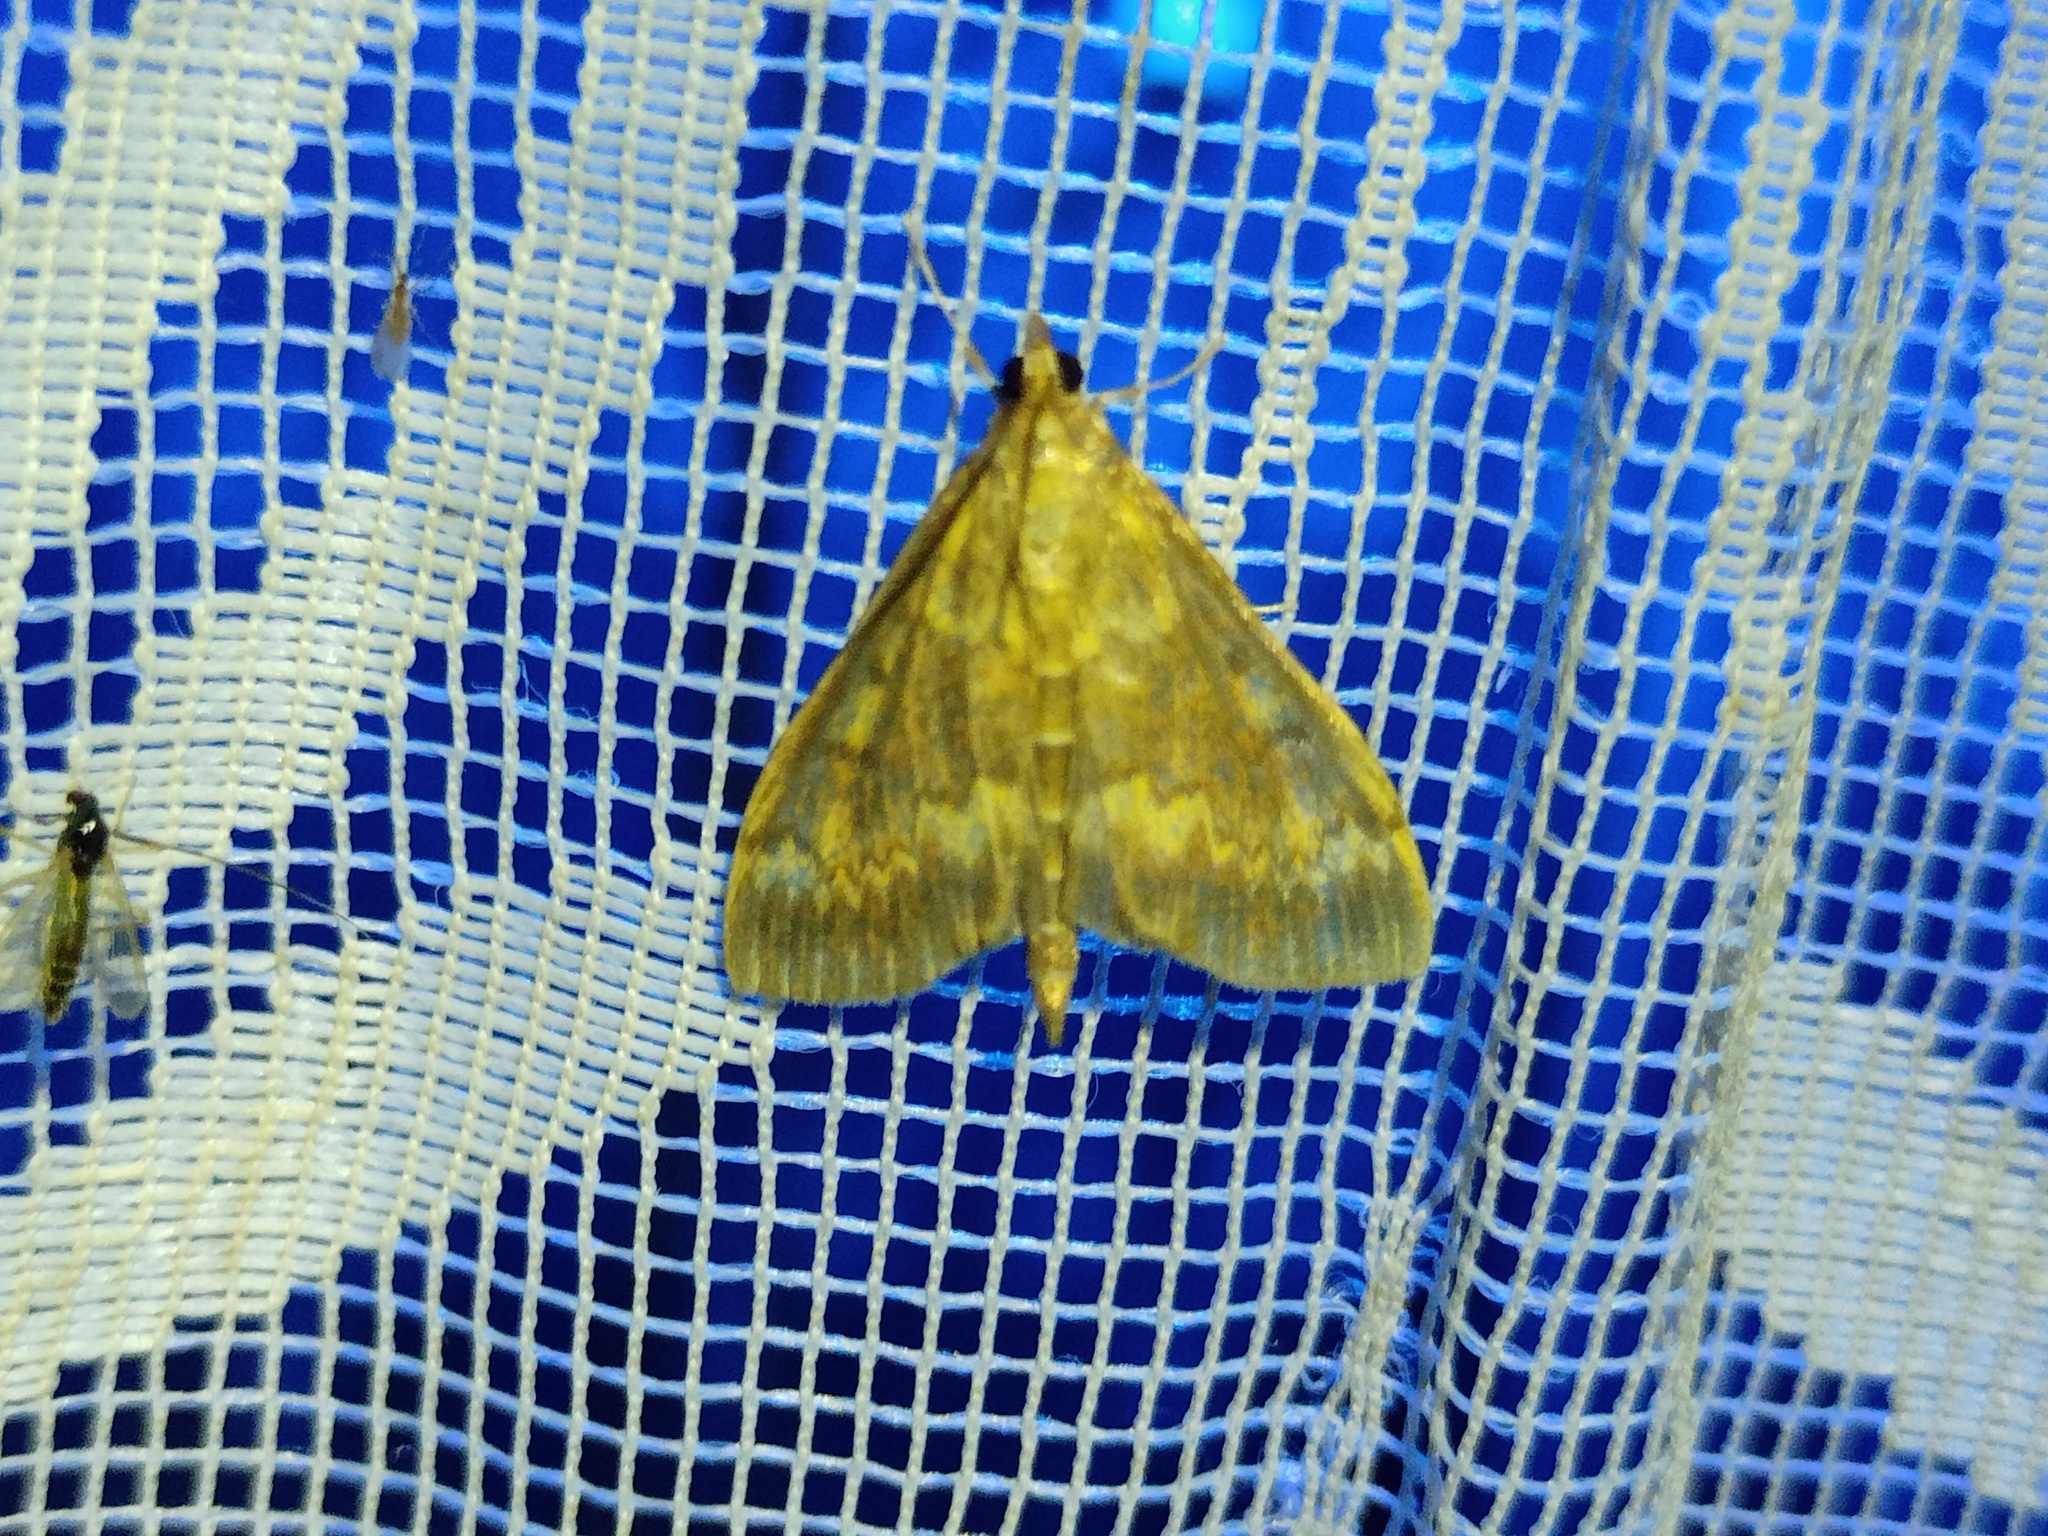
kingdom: Animalia
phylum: Arthropoda
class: Insecta
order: Lepidoptera
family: Crambidae
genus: Ostrinia
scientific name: Ostrinia nubilalis
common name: European corn borer
